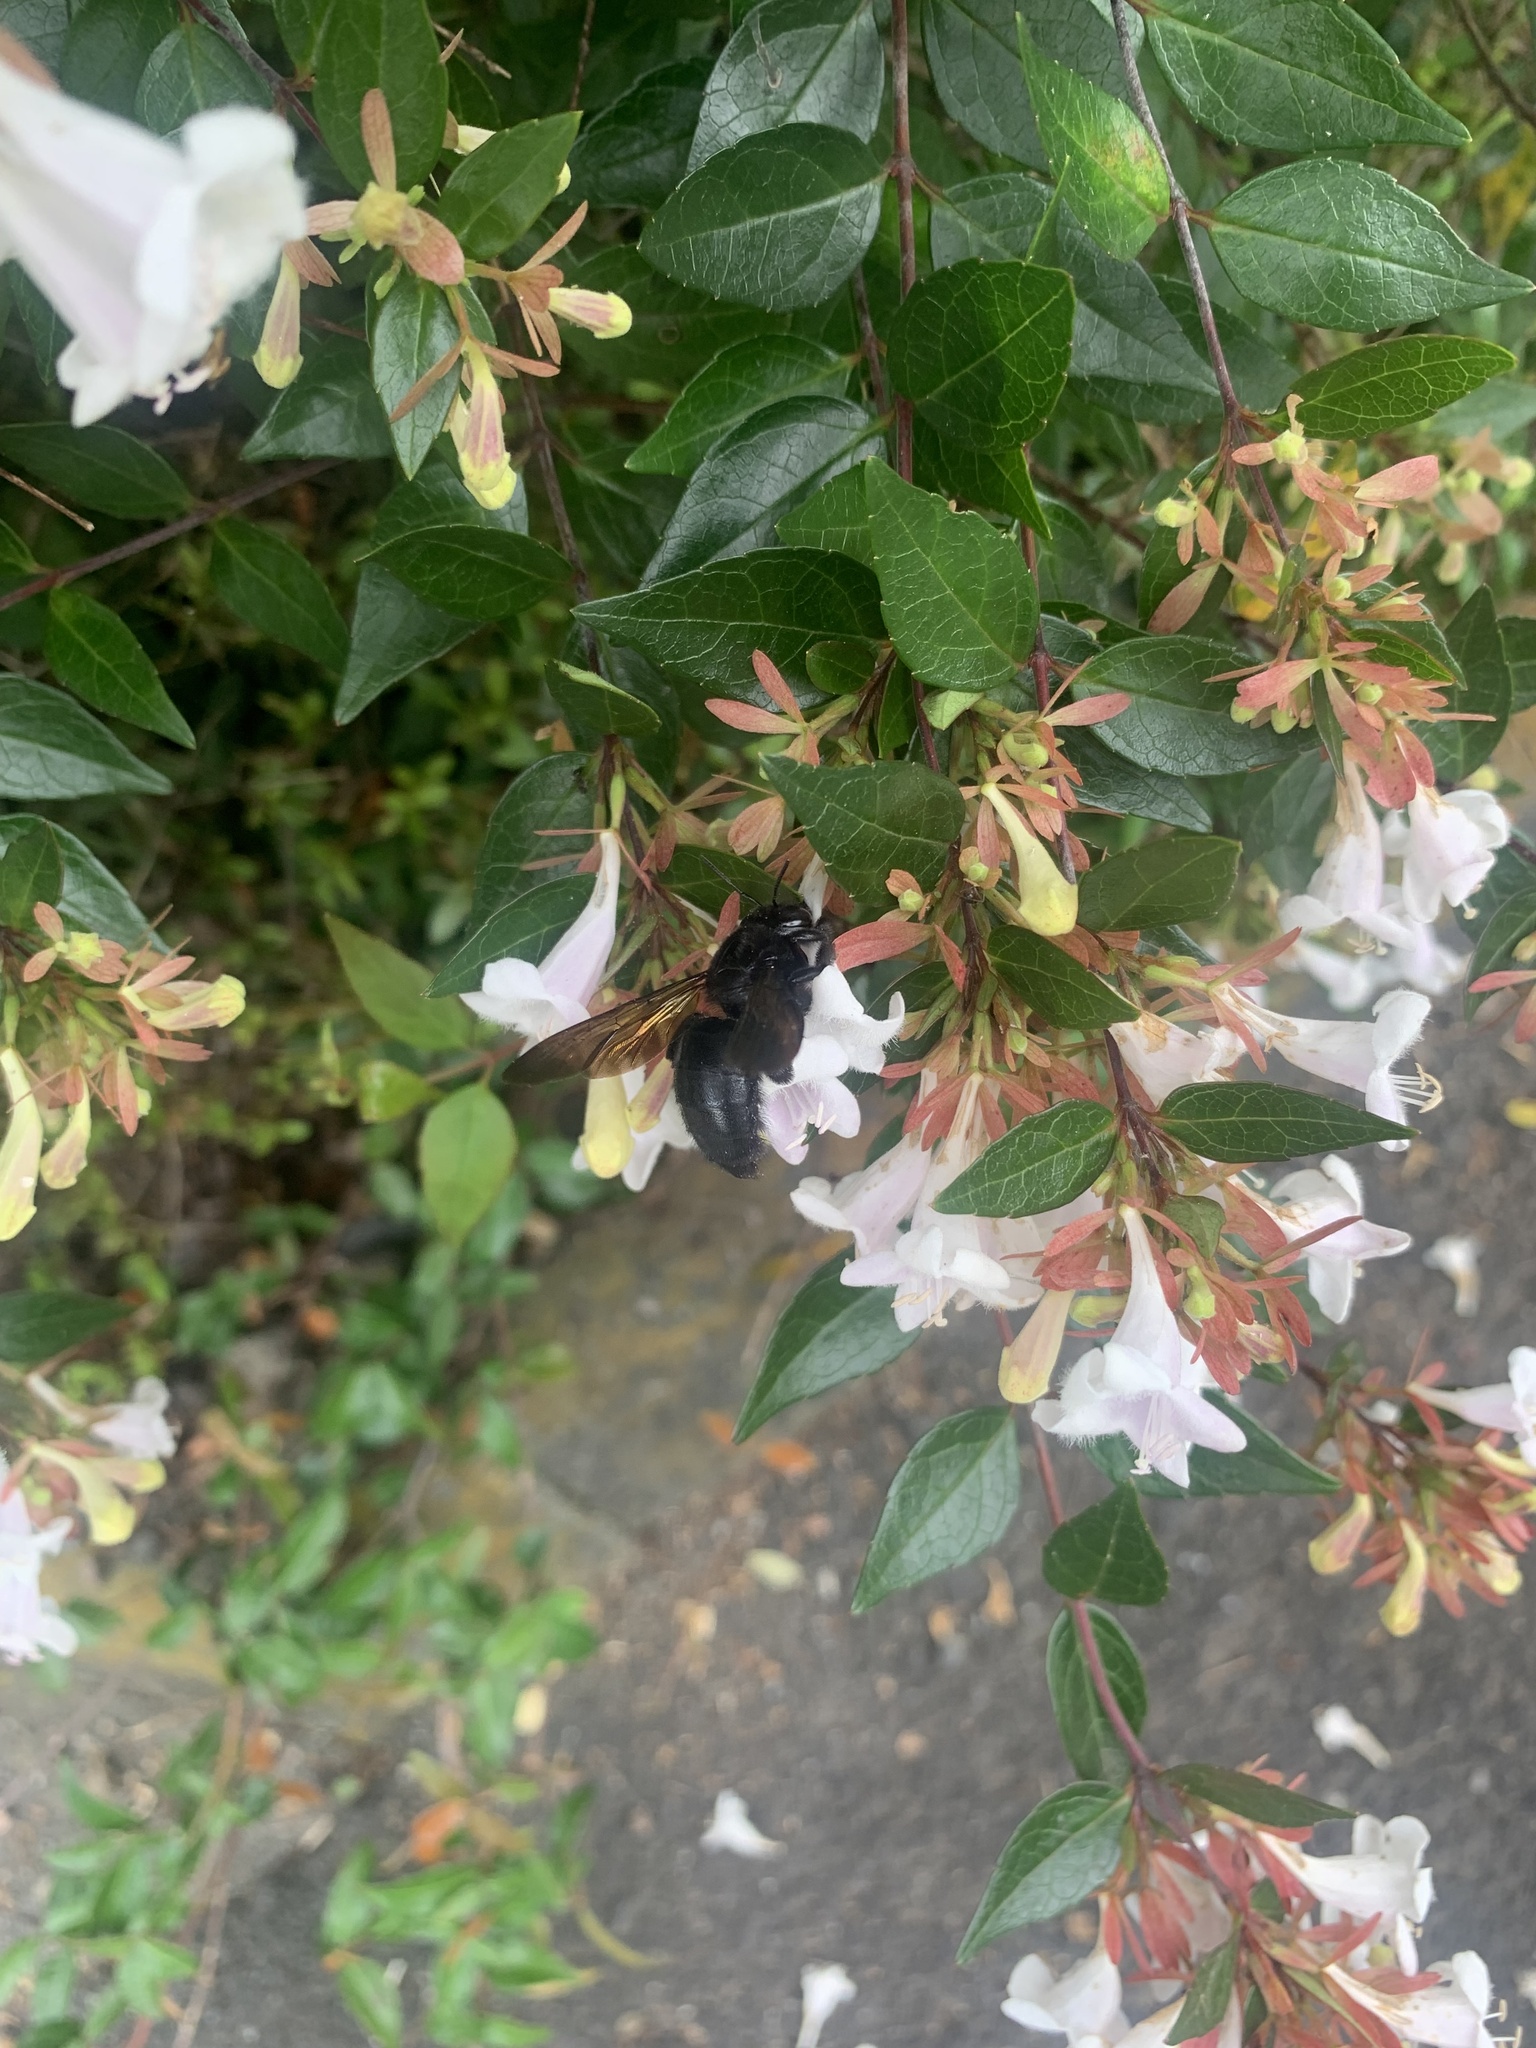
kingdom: Animalia
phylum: Arthropoda
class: Insecta
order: Hymenoptera
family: Apidae
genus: Xylocopa
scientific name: Xylocopa tranquebarorum
